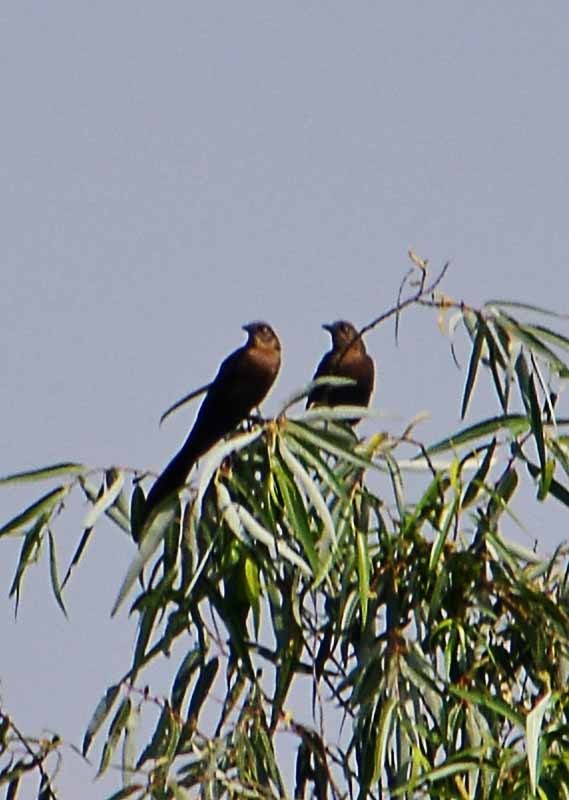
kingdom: Animalia
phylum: Chordata
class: Aves
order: Passeriformes
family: Icteridae
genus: Quiscalus
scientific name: Quiscalus mexicanus
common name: Great-tailed grackle
